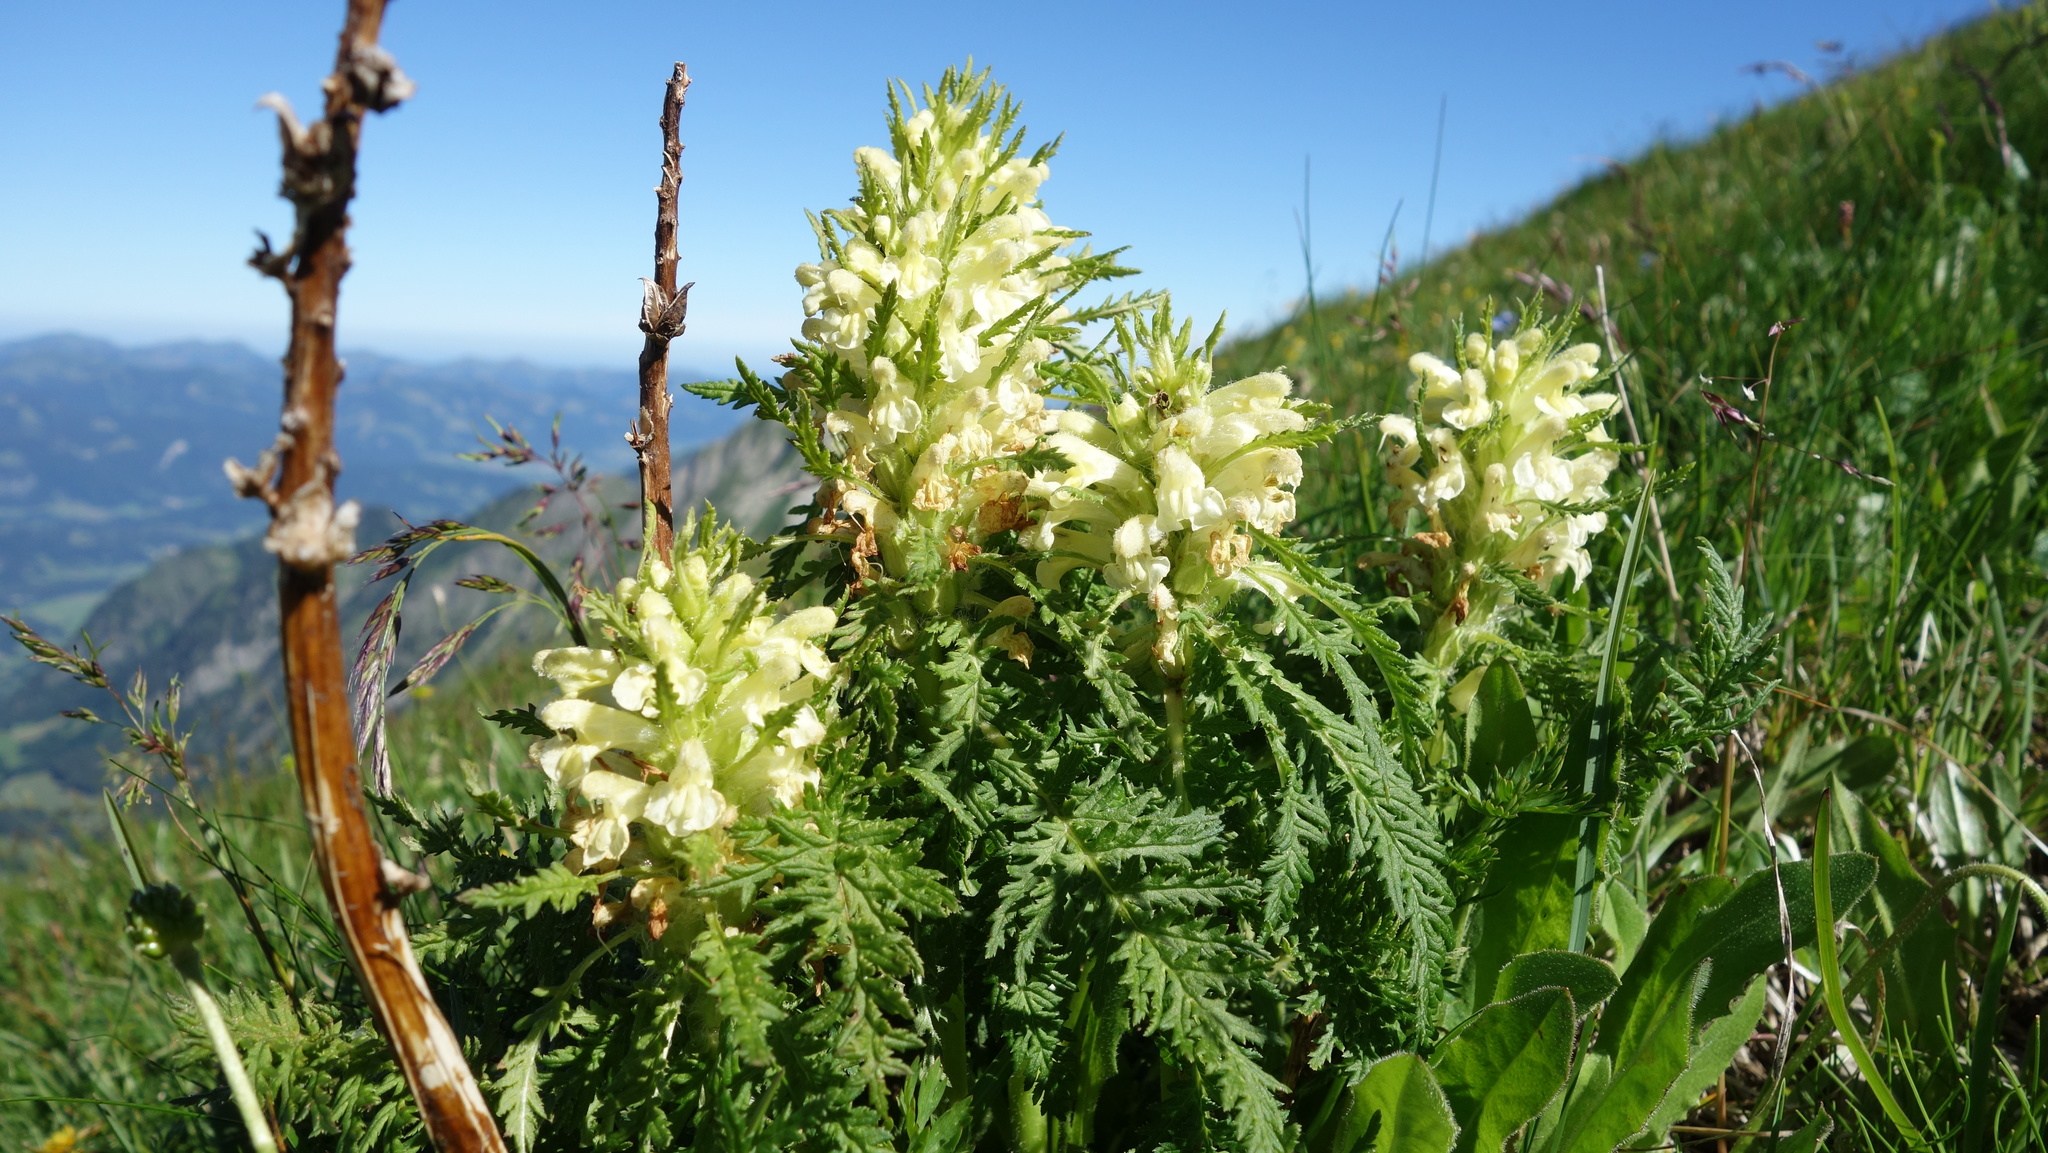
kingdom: Plantae
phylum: Tracheophyta
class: Magnoliopsida
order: Lamiales
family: Orobanchaceae
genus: Pedicularis
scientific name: Pedicularis foliosa
